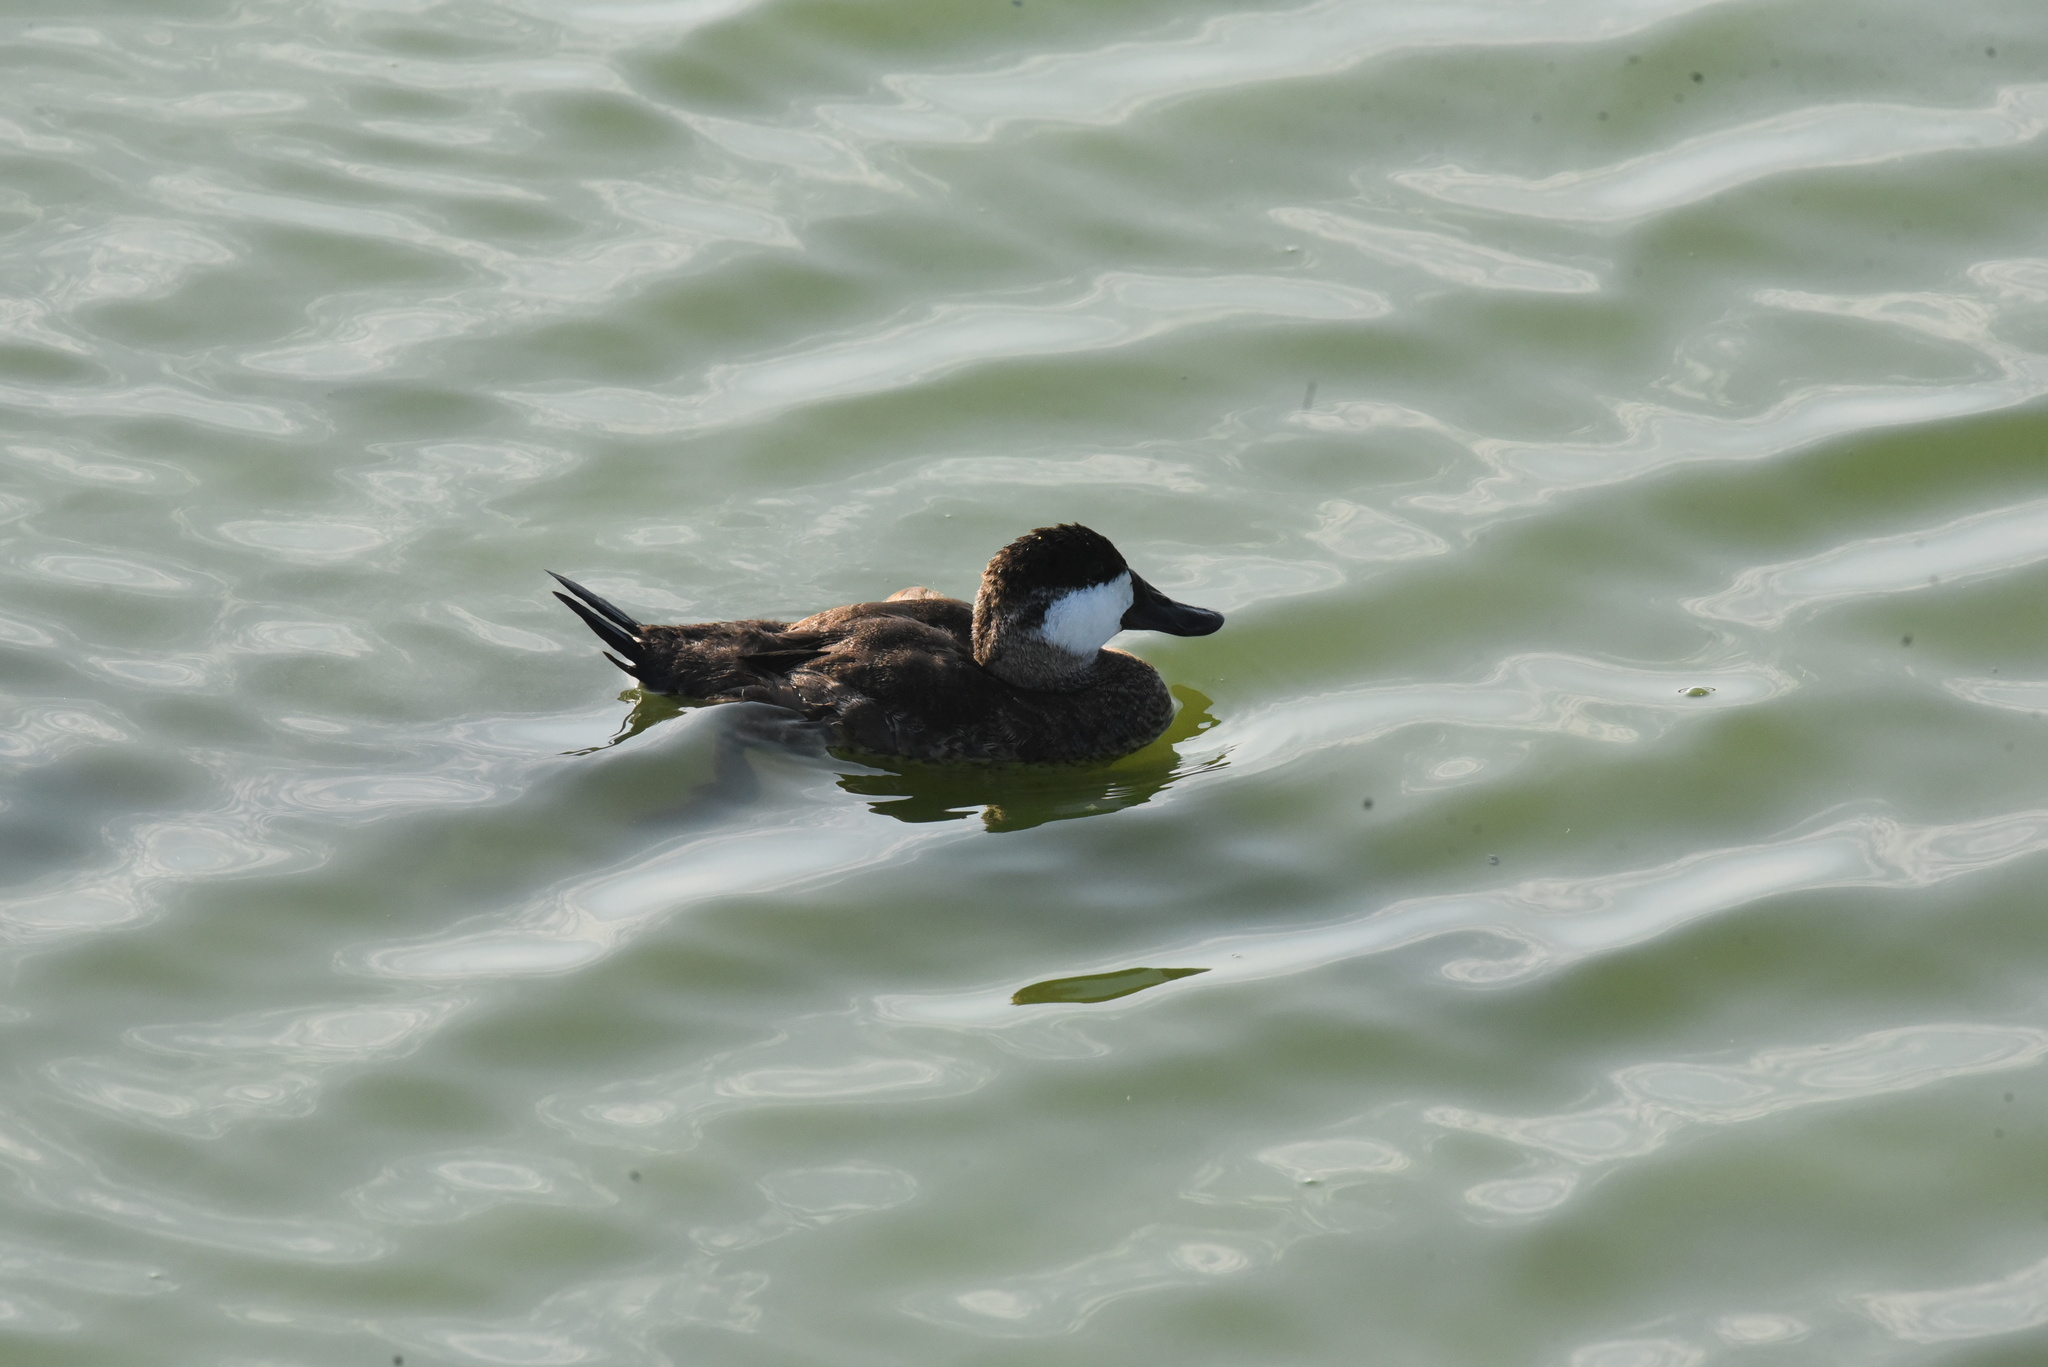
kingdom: Animalia
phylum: Chordata
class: Aves
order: Anseriformes
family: Anatidae
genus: Oxyura
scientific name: Oxyura jamaicensis
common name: Ruddy duck
